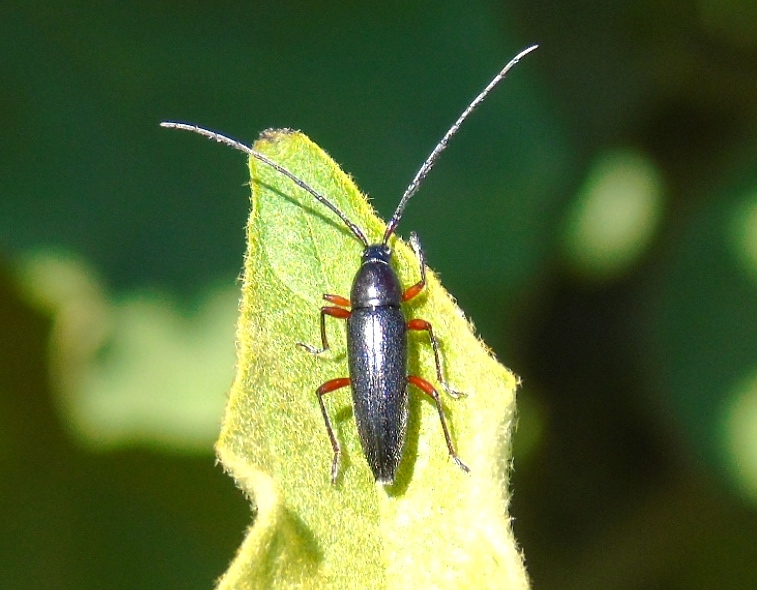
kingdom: Animalia
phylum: Arthropoda
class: Insecta
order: Coleoptera
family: Cerambycidae
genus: Stenosphenus
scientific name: Stenosphenus
